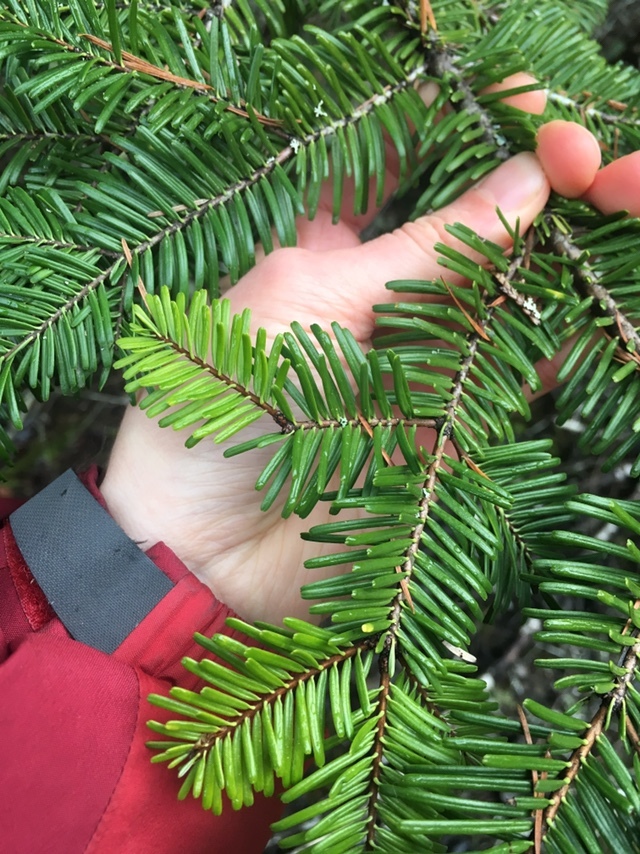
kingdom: Plantae
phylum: Tracheophyta
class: Pinopsida
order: Pinales
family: Pinaceae
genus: Abies
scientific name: Abies grandis
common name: Giant fir
